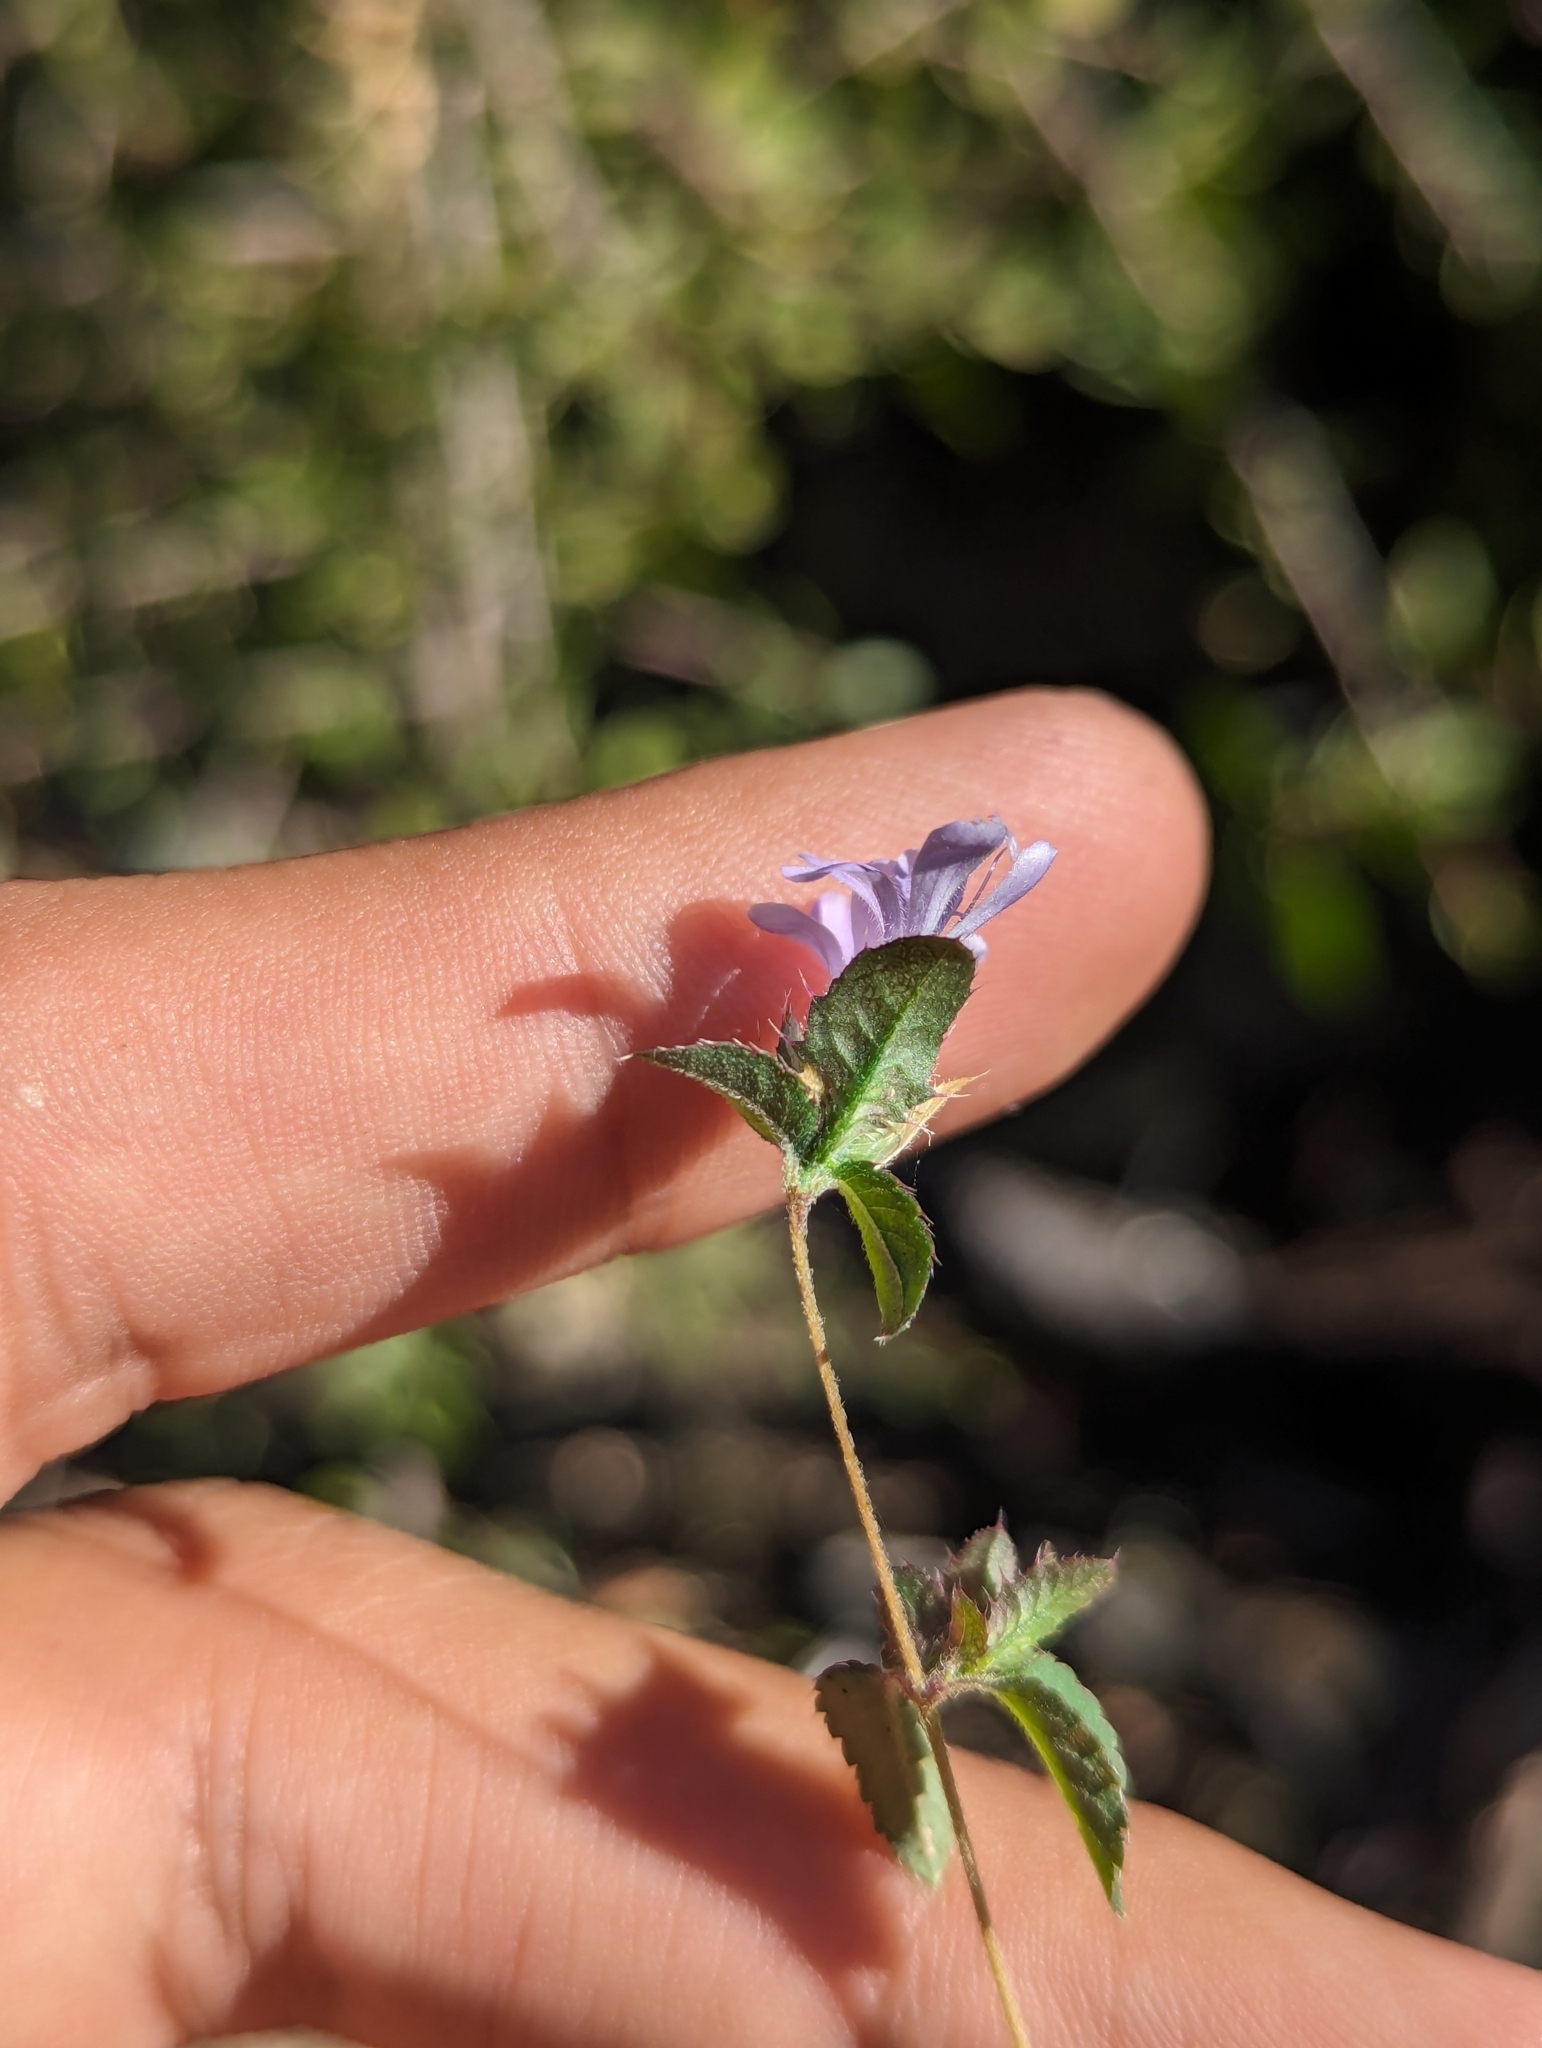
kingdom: Plantae
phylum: Tracheophyta
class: Magnoliopsida
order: Ericales
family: Polemoniaceae
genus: Loeselia
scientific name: Loeselia ciliata
